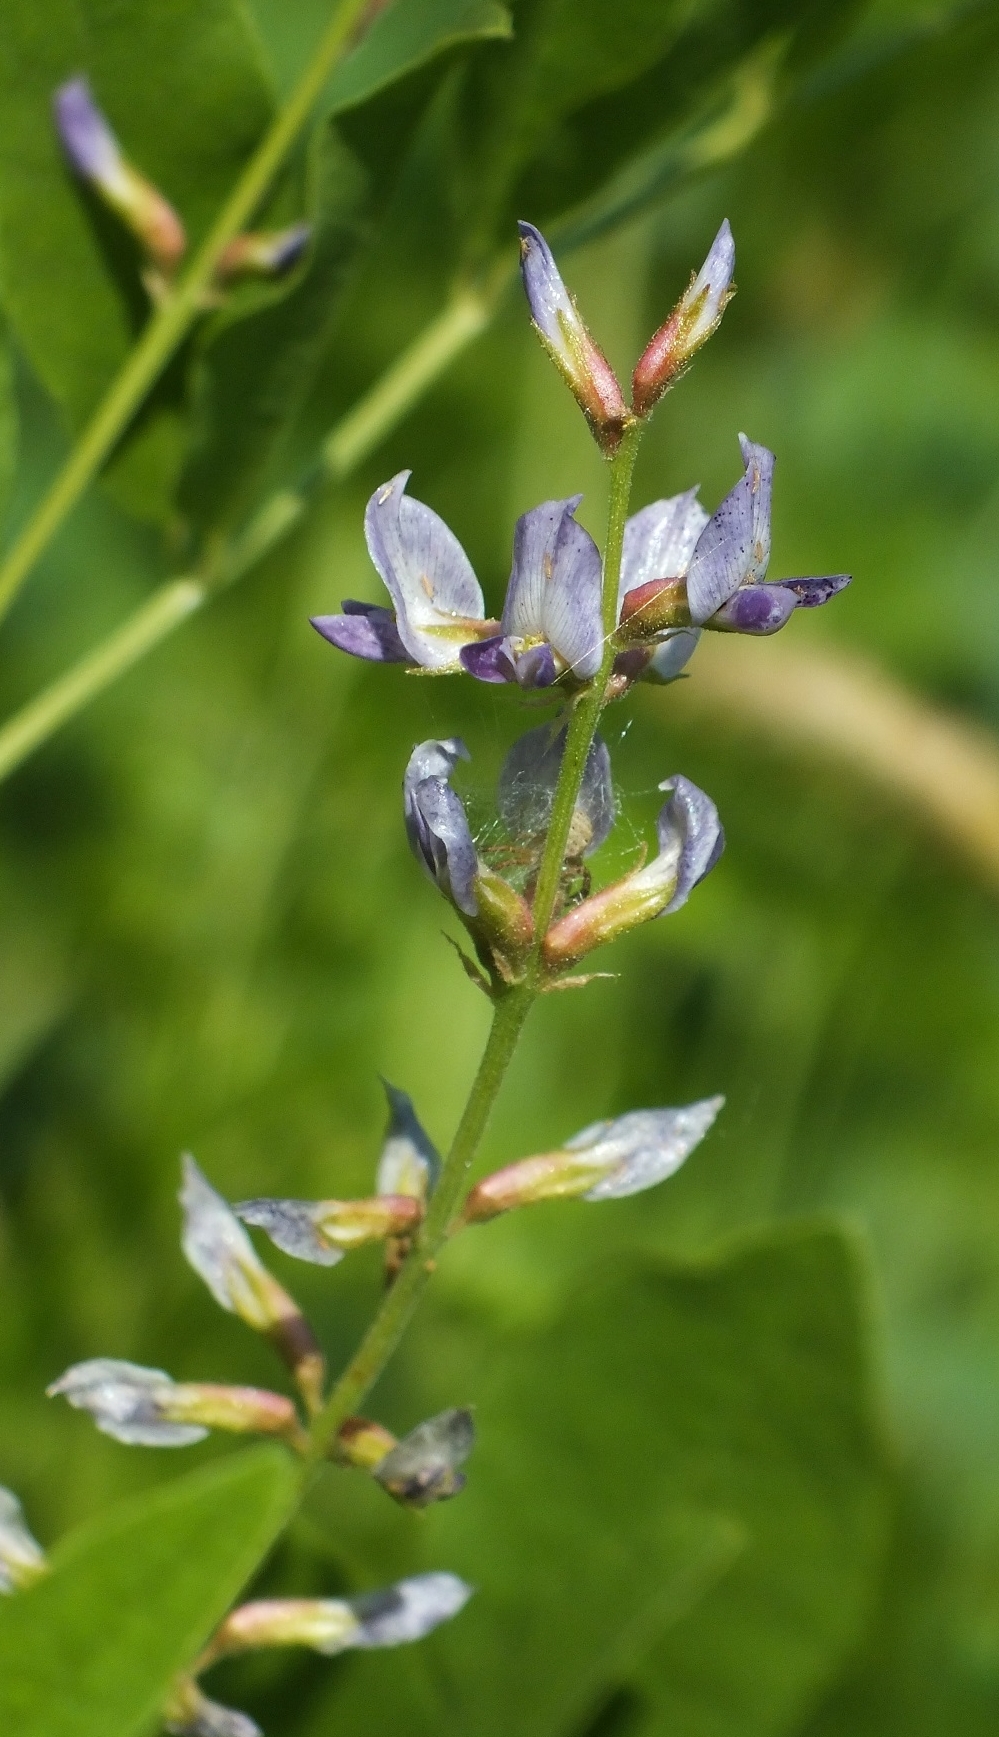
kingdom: Plantae
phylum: Tracheophyta
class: Magnoliopsida
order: Fabales
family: Fabaceae
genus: Glycyrrhiza
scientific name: Glycyrrhiza glabra
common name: Liquorice
